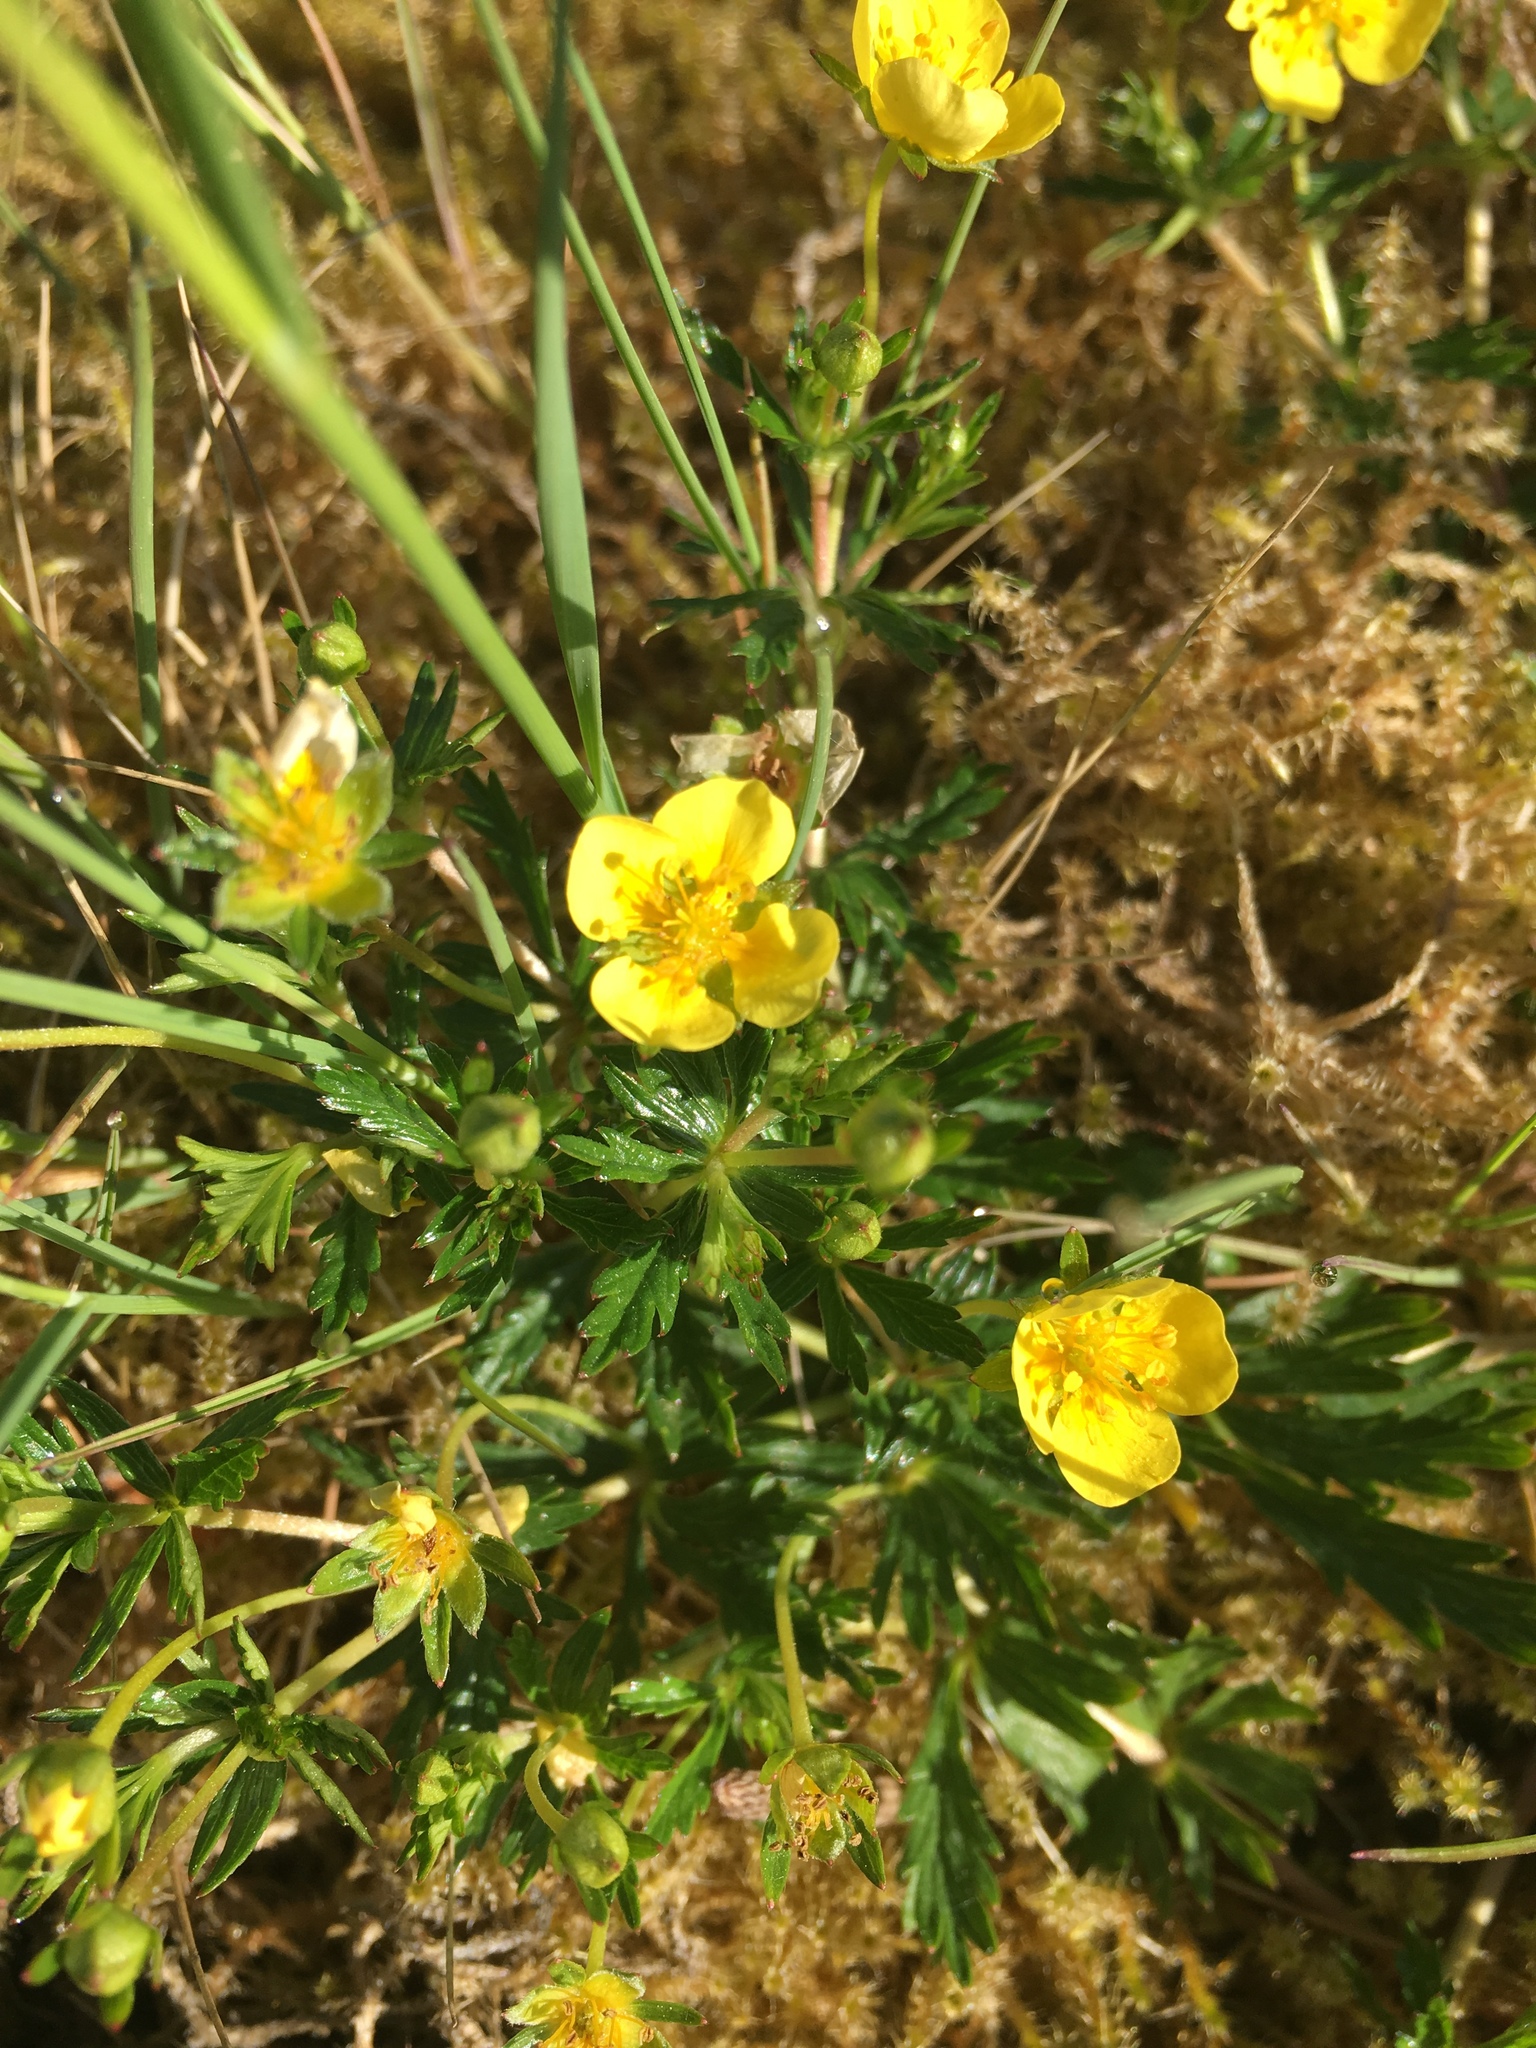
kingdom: Plantae
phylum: Tracheophyta
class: Magnoliopsida
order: Rosales
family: Rosaceae
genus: Potentilla
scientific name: Potentilla erecta
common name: Tormentil
